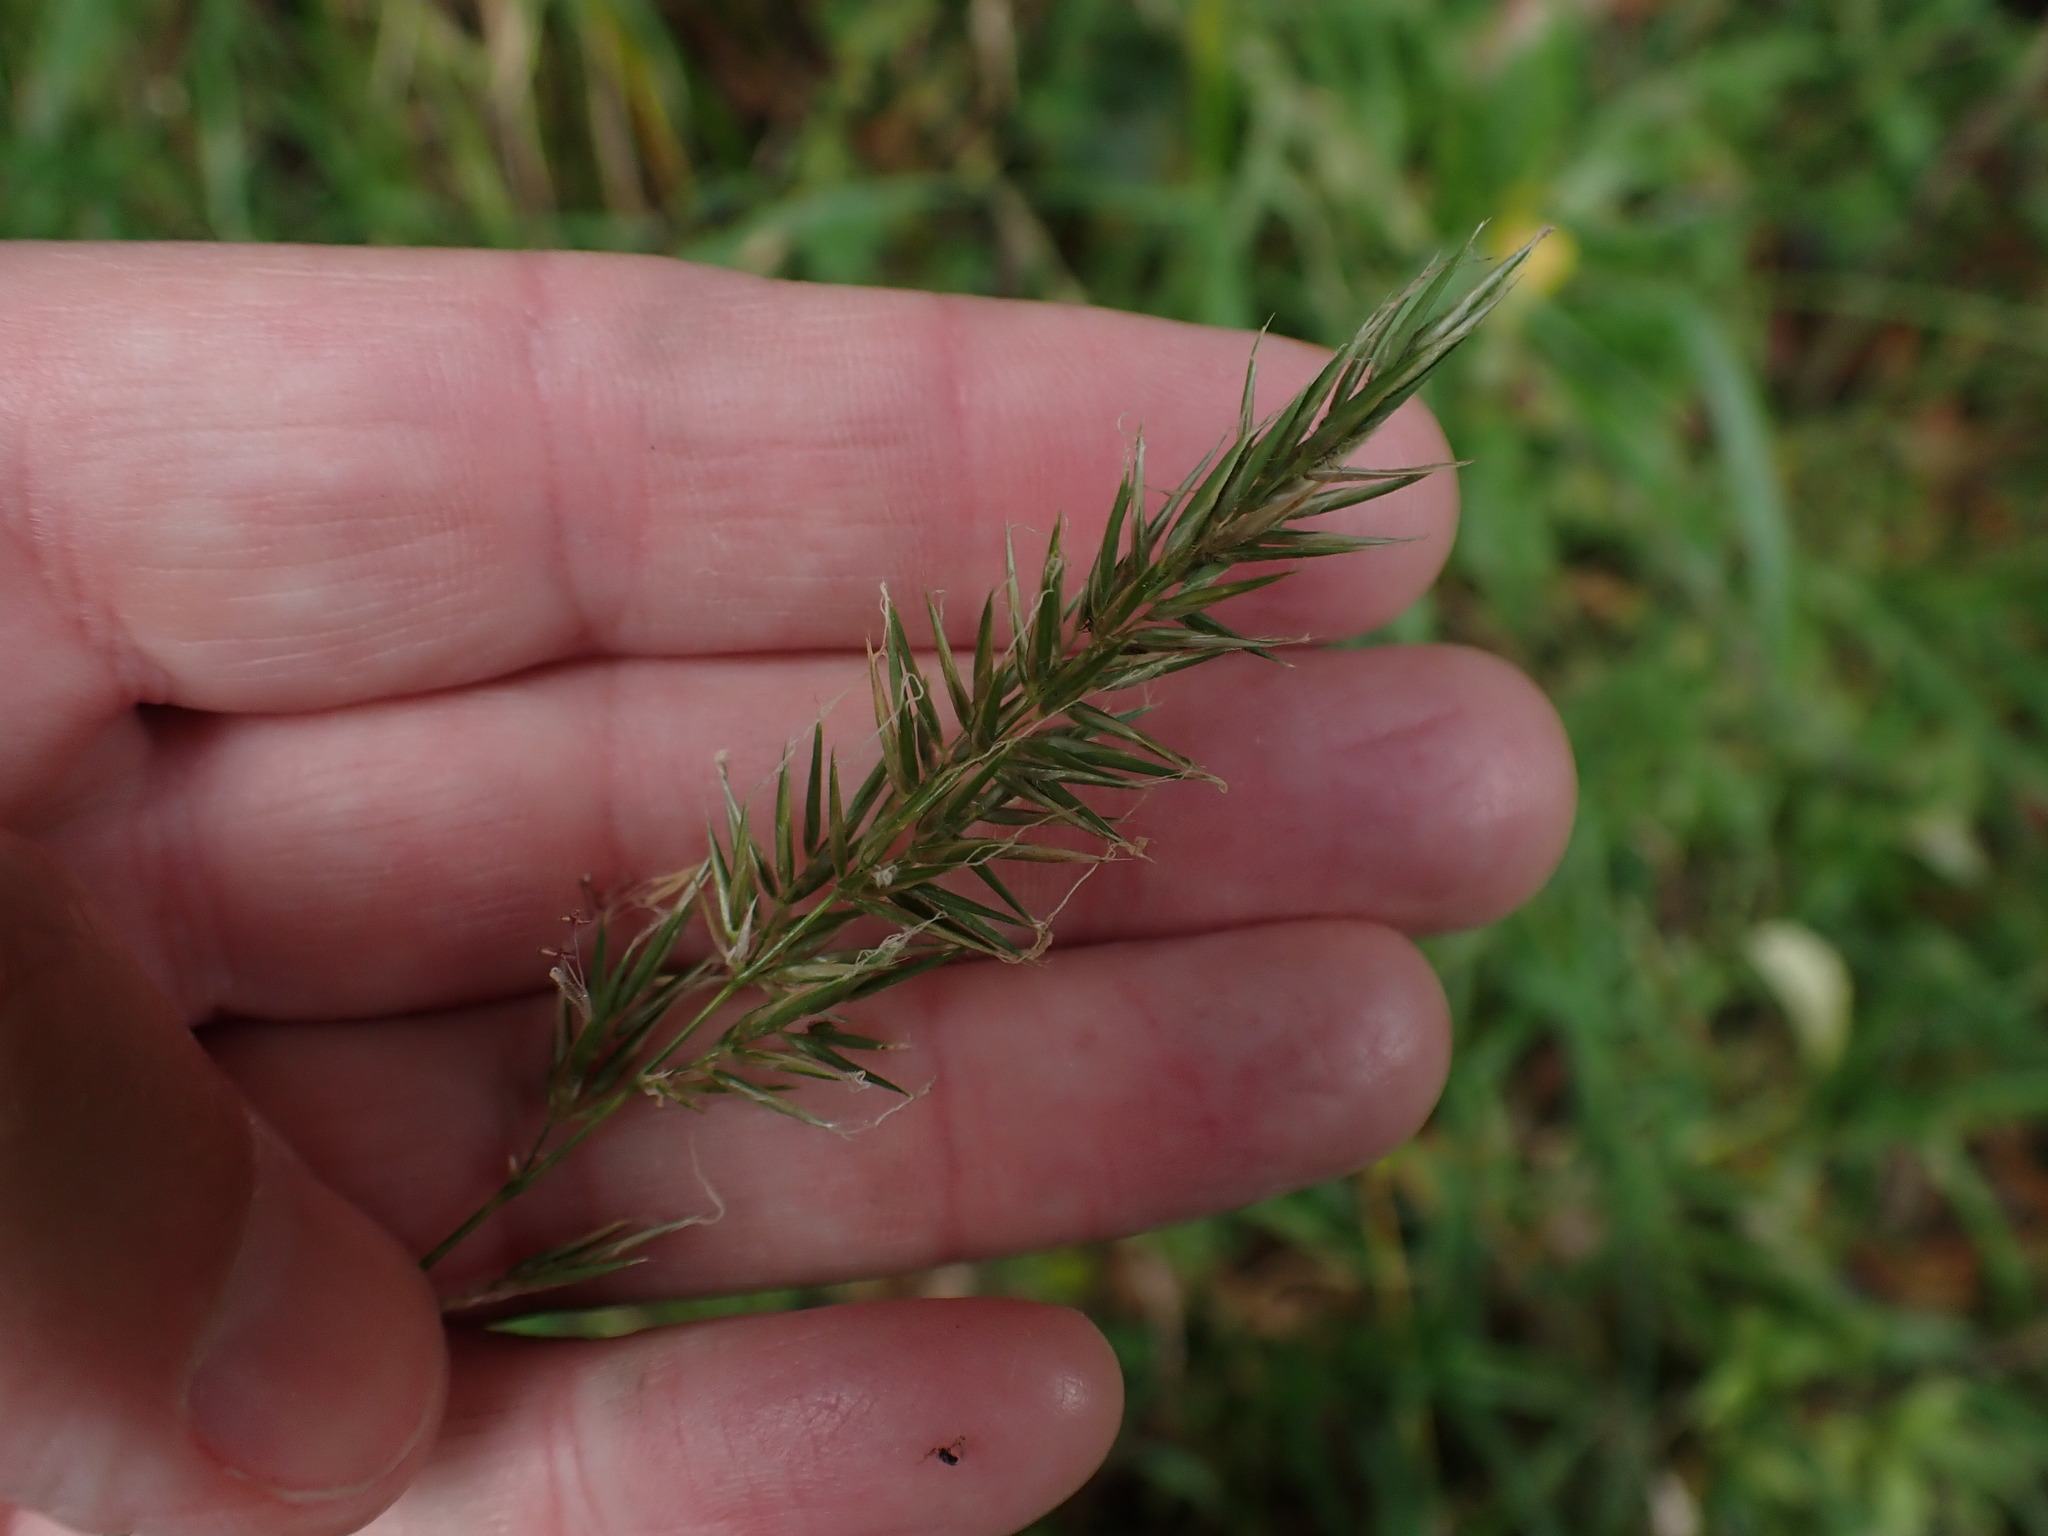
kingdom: Plantae
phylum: Tracheophyta
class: Liliopsida
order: Poales
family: Poaceae
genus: Anthoxanthum
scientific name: Anthoxanthum odoratum
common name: Sweet vernalgrass
